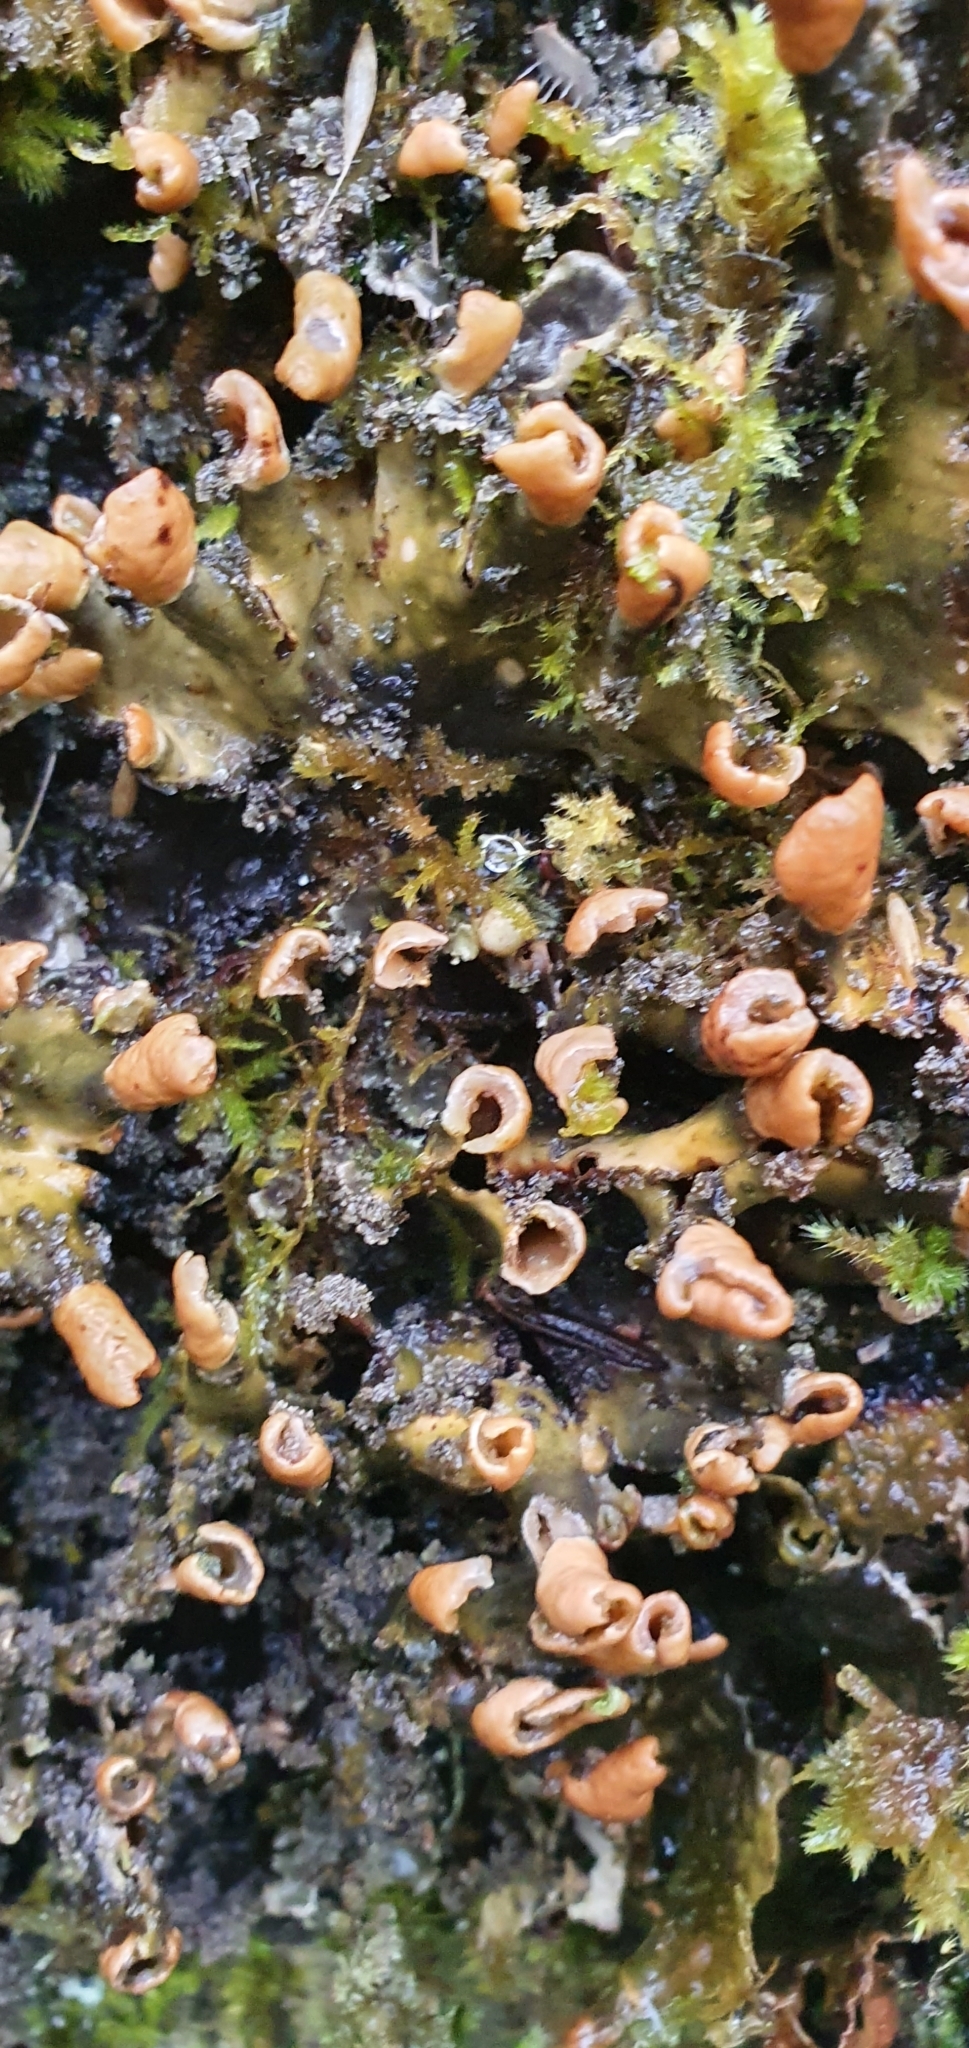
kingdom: Fungi
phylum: Ascomycota
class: Lecanoromycetes
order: Peltigerales
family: Peltigeraceae
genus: Peltigera
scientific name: Peltigera praetextata
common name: Scaly dog-lichen
